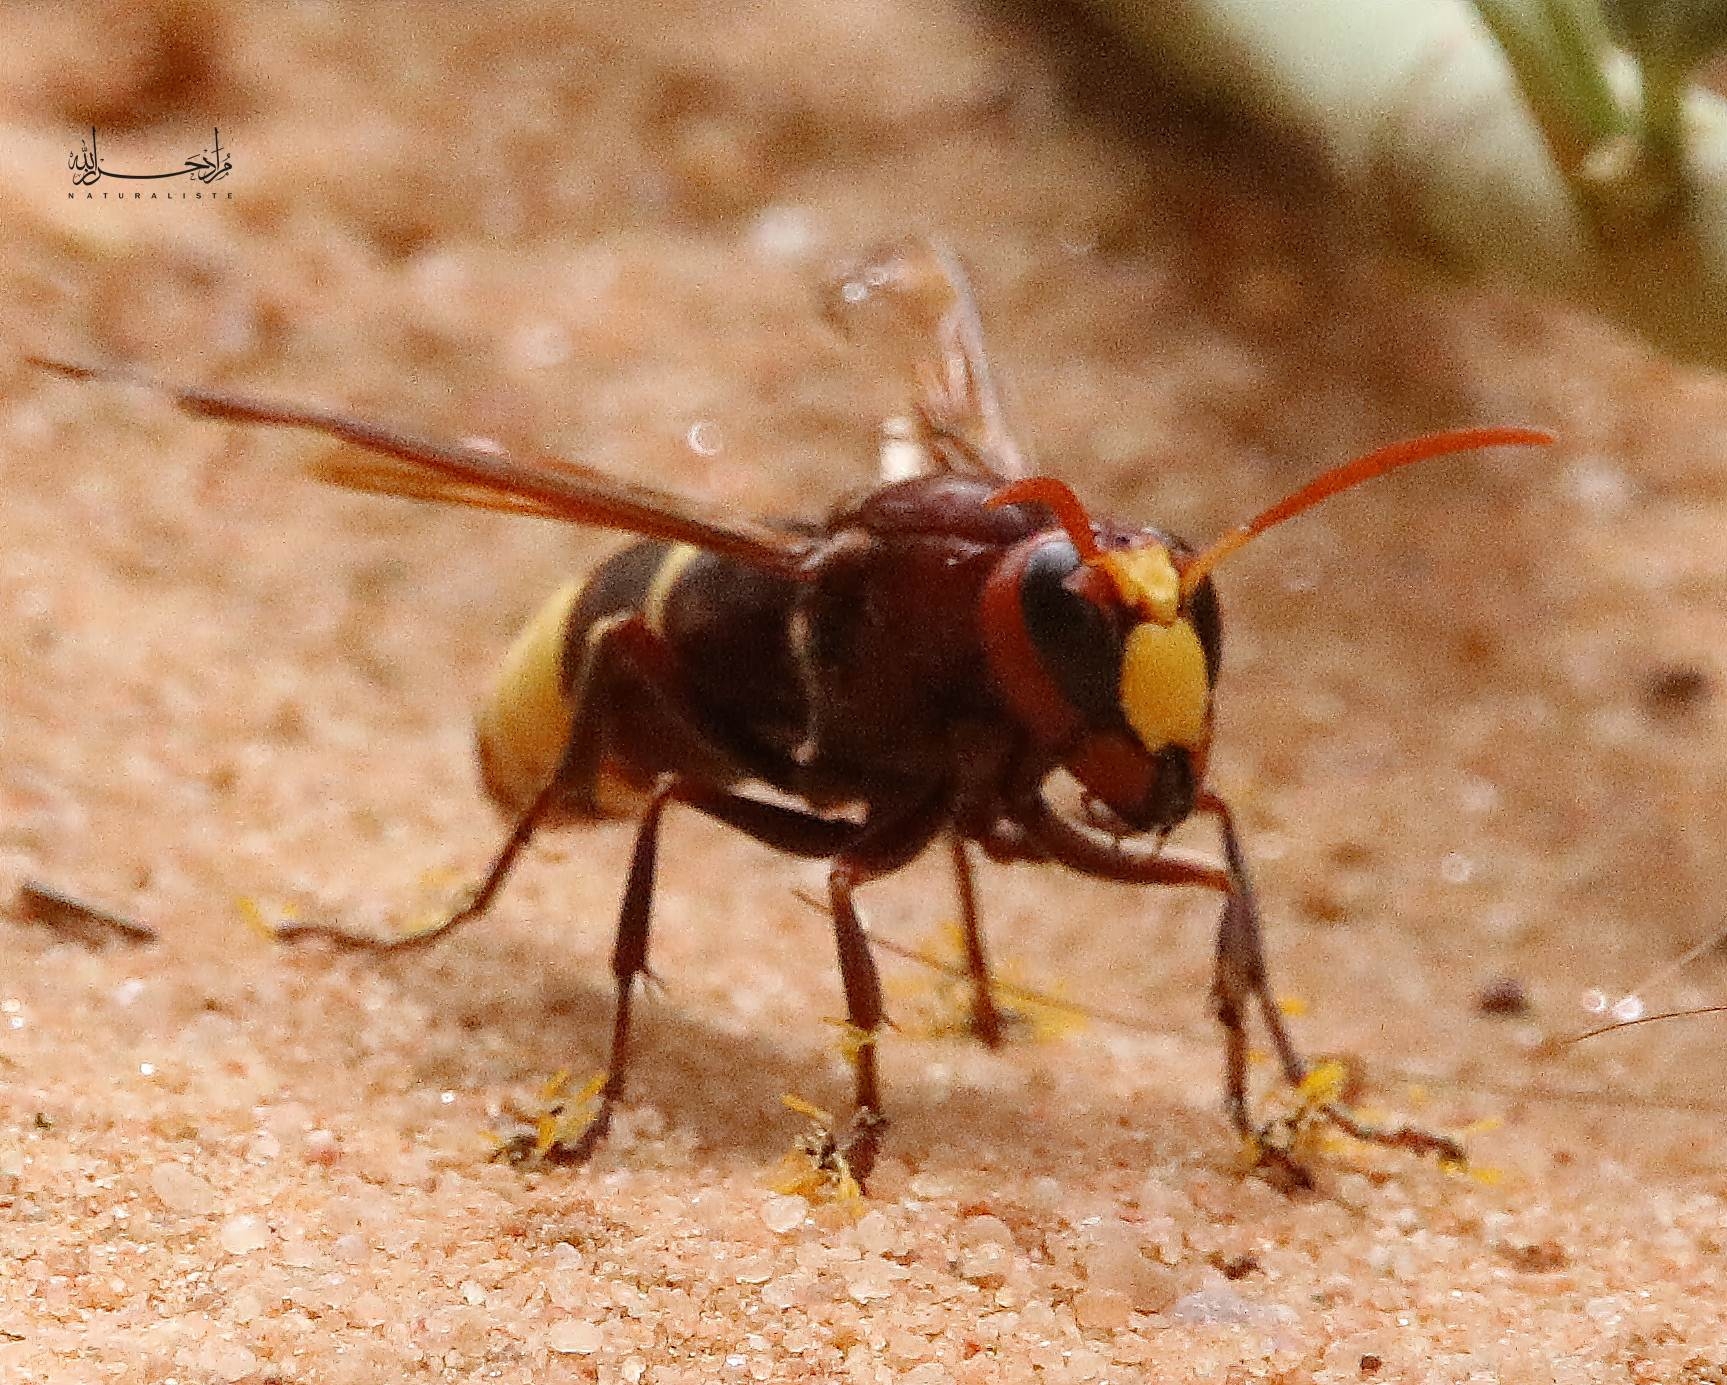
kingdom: Animalia
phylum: Arthropoda
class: Insecta
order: Hymenoptera
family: Vespidae
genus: Vespa
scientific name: Vespa orientalis
